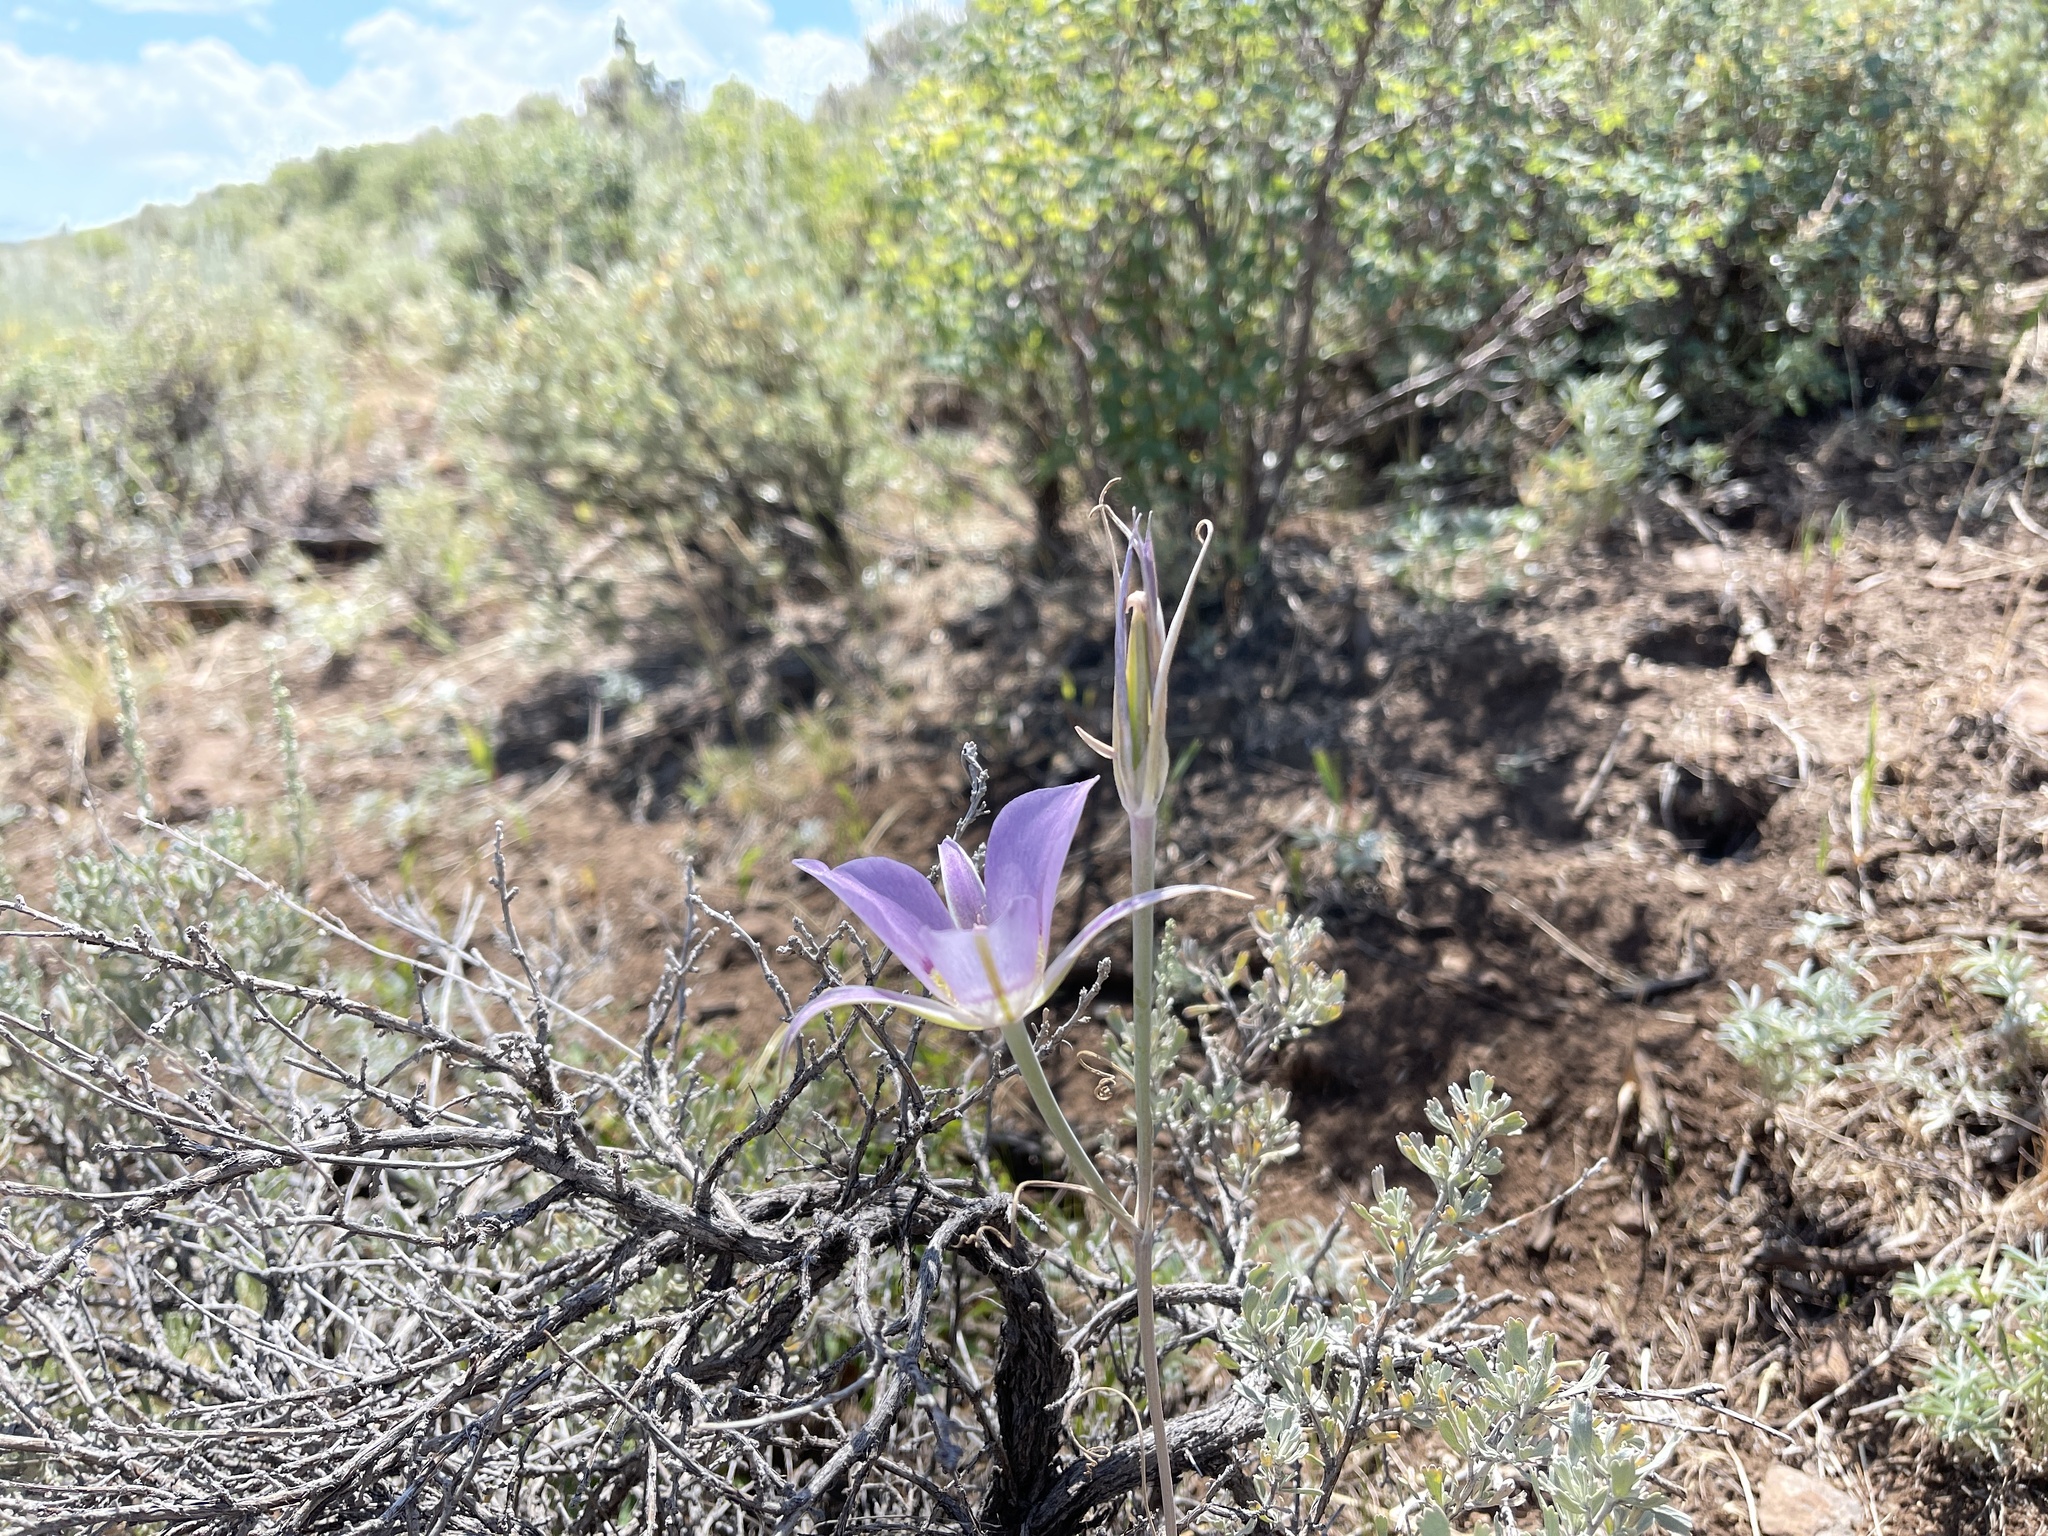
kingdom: Plantae
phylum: Tracheophyta
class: Liliopsida
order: Liliales
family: Liliaceae
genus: Calochortus
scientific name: Calochortus macrocarpus
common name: Green-band mariposa lily
